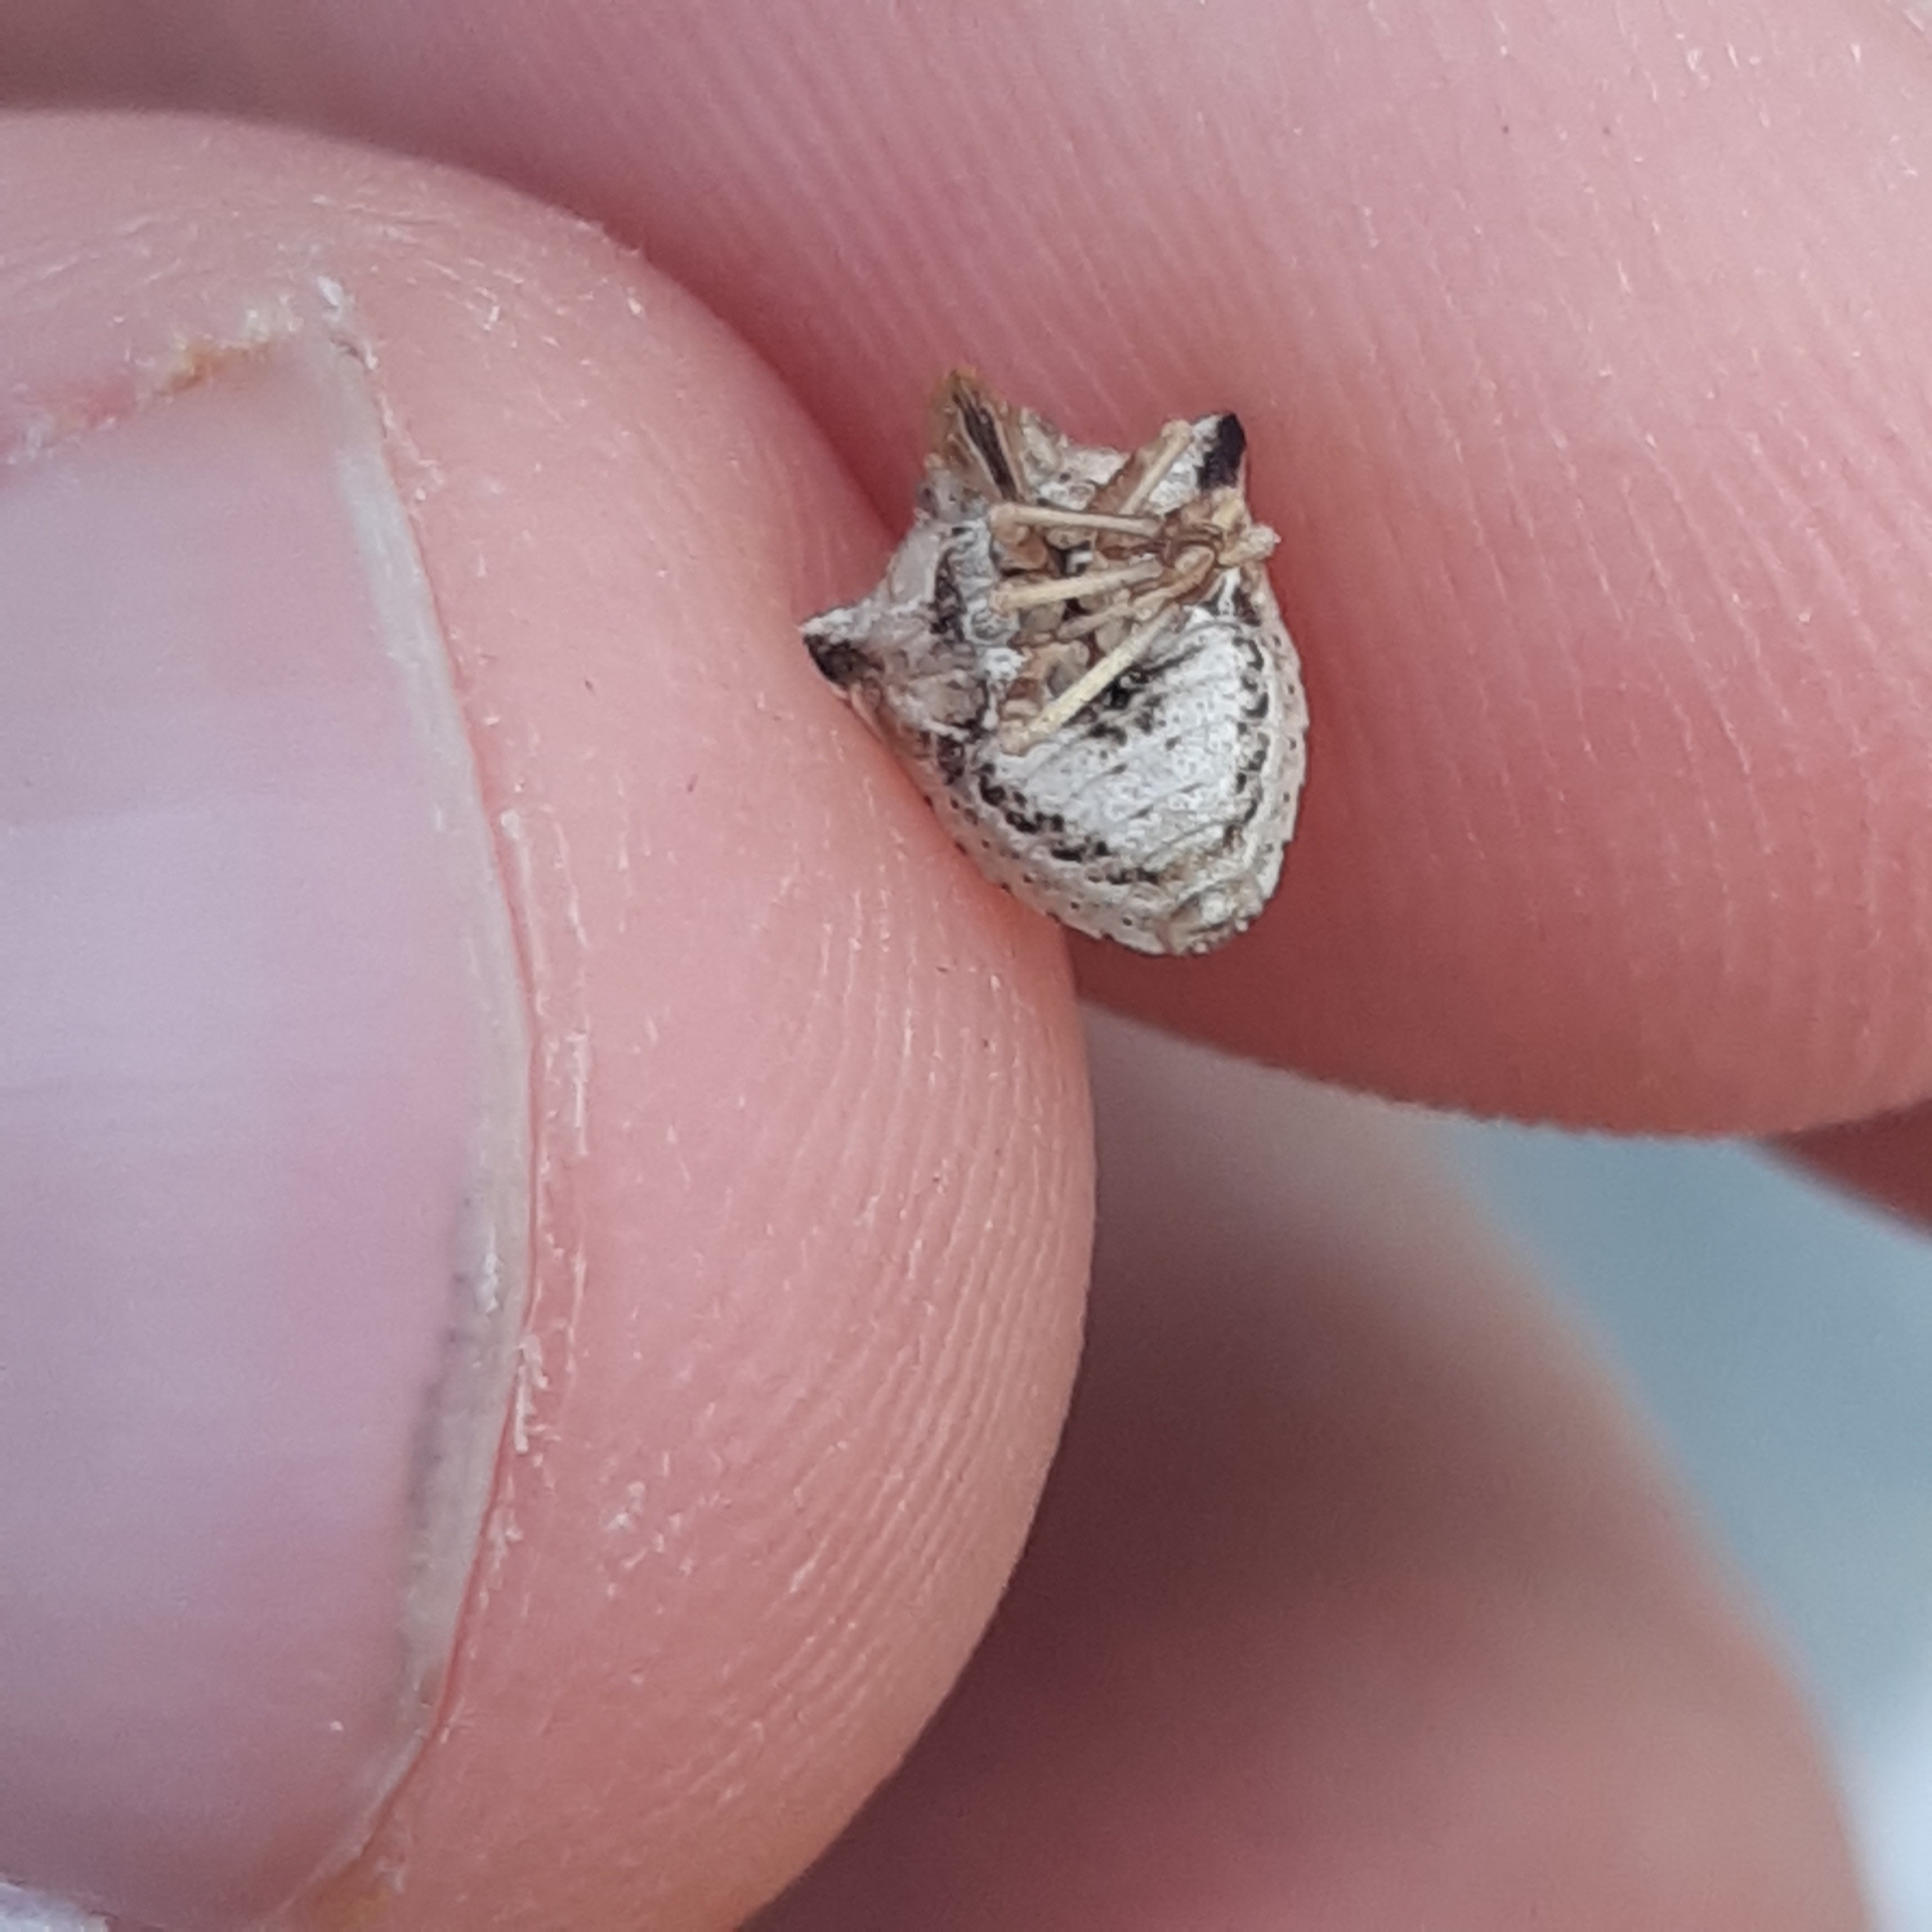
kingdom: Animalia
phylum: Arthropoda
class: Insecta
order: Hemiptera
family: Pentatomidae
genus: Ancyrosoma
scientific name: Ancyrosoma leucogrammes
